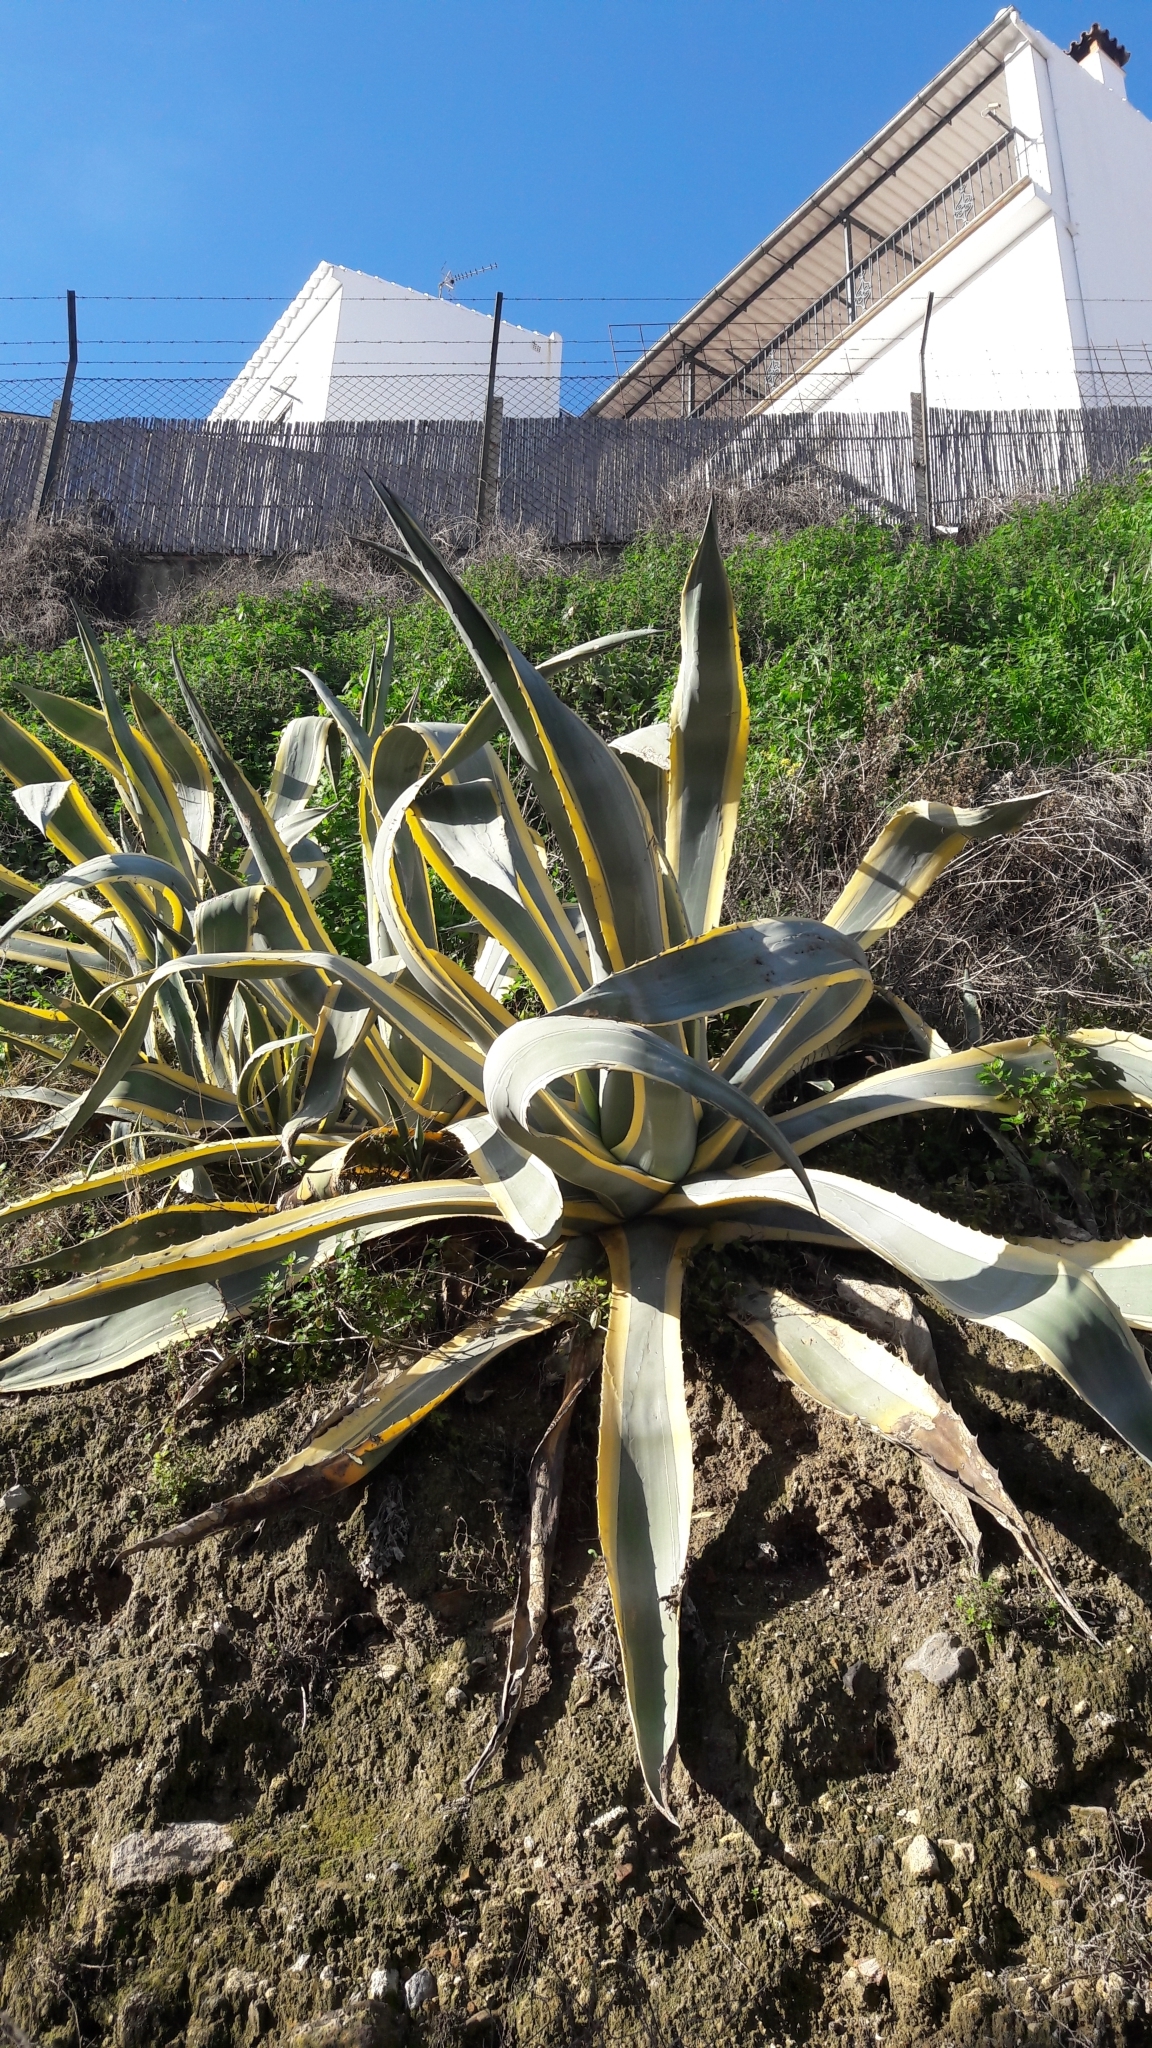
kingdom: Plantae
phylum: Tracheophyta
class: Liliopsida
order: Asparagales
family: Asparagaceae
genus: Agave
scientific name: Agave americana
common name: Centuryplant
